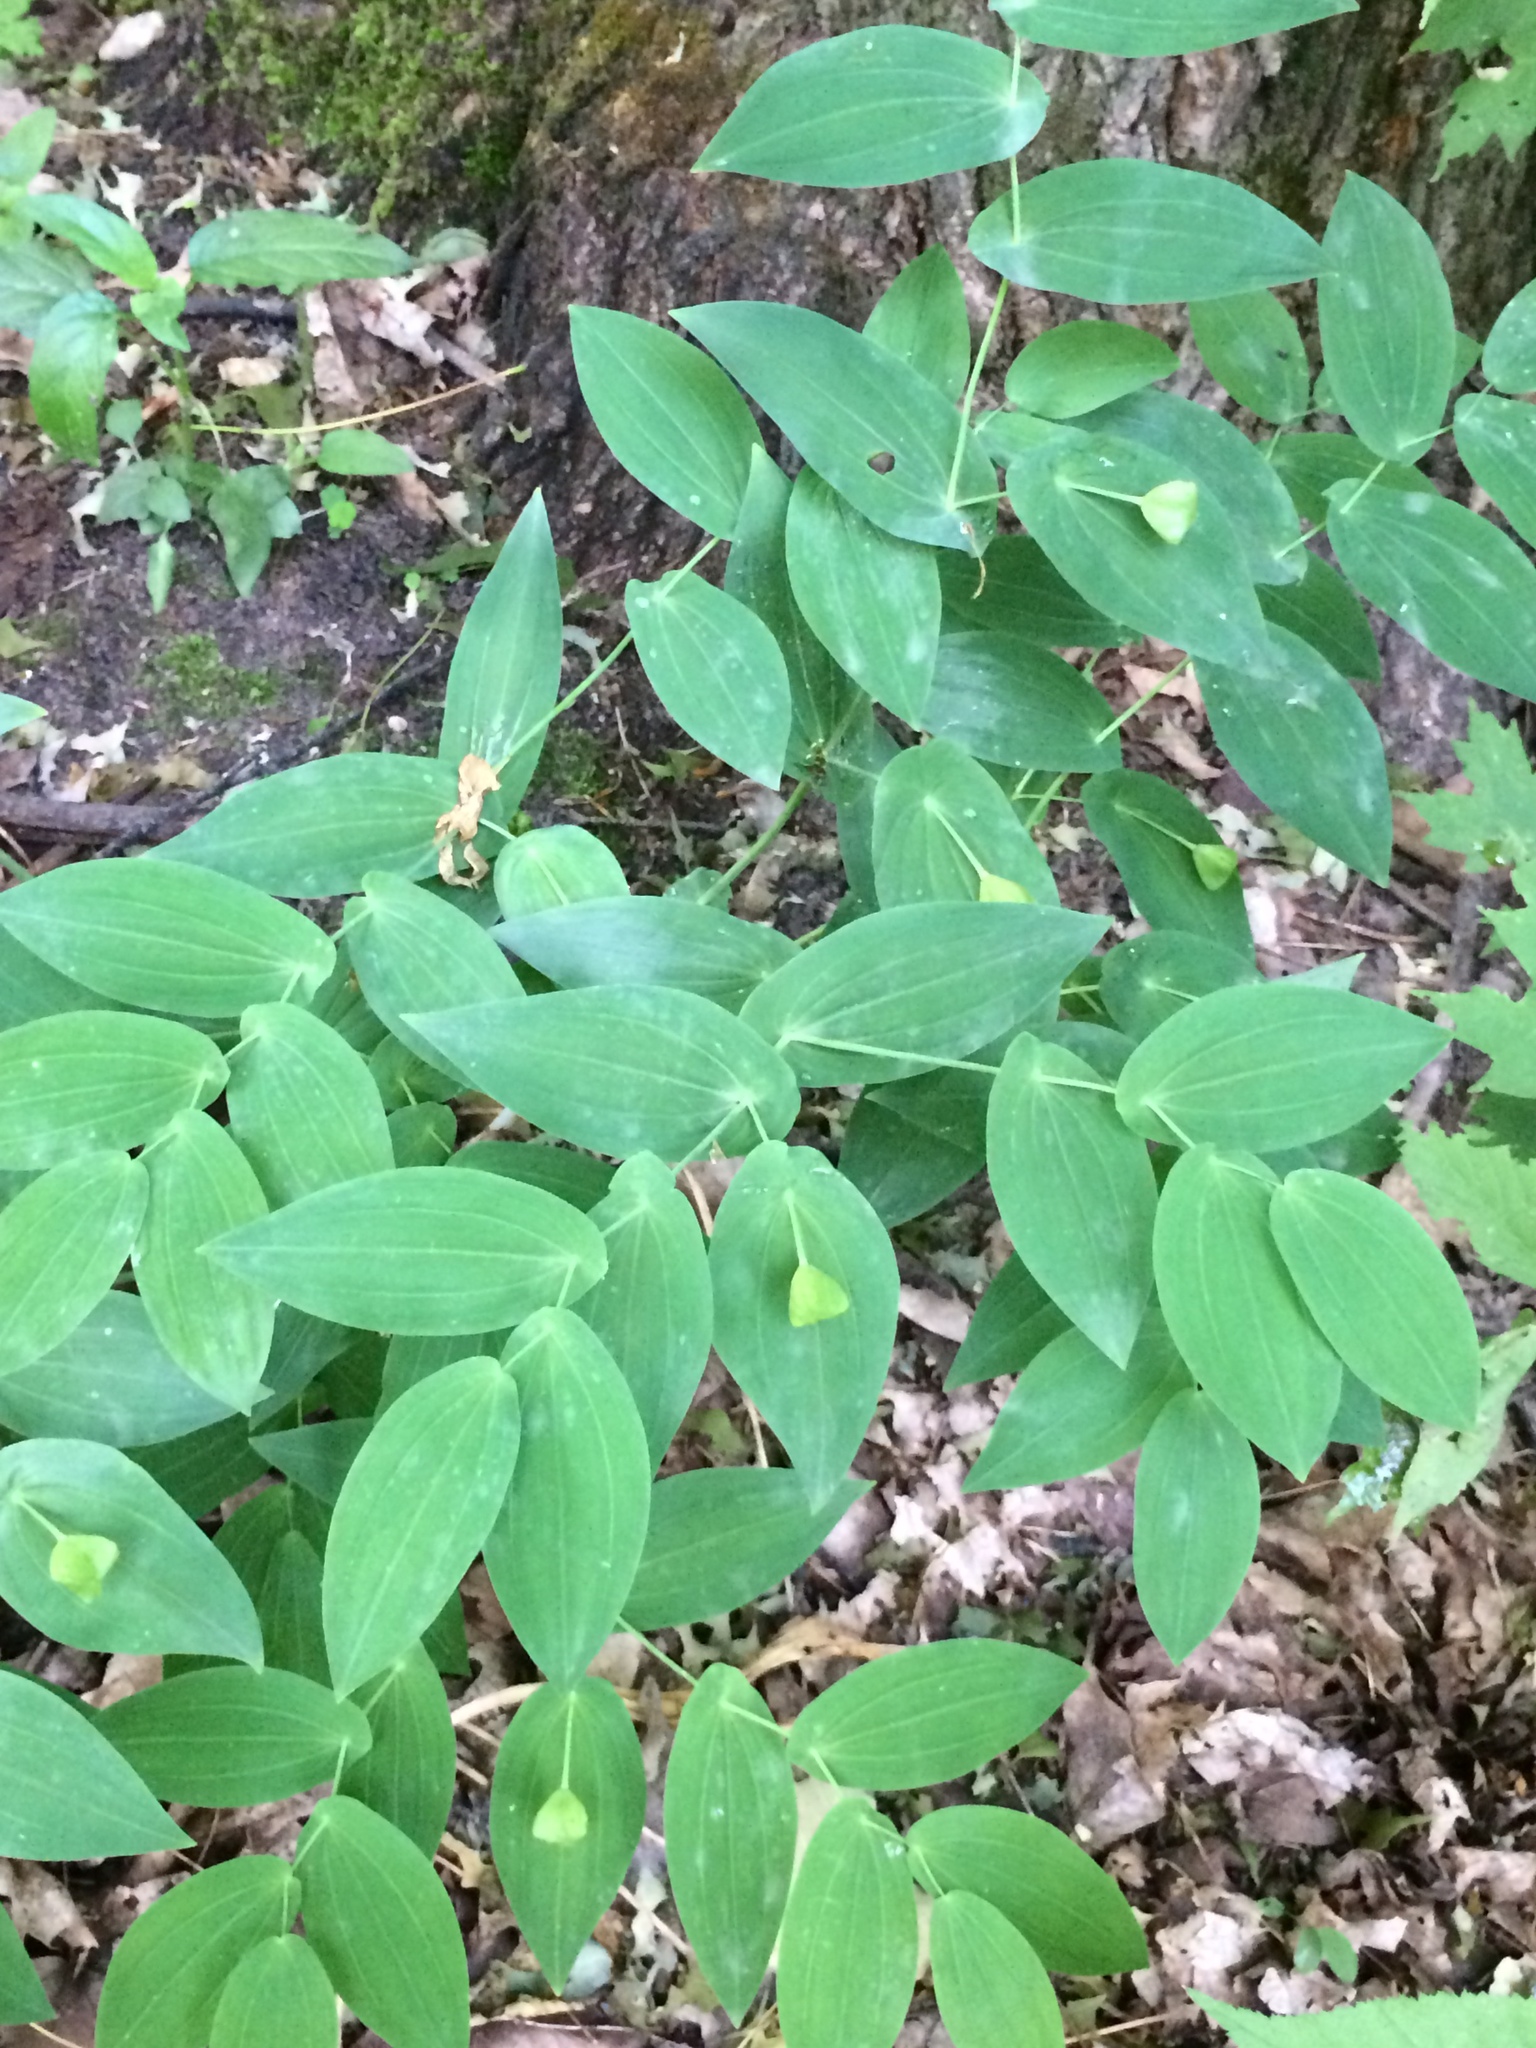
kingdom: Plantae
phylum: Tracheophyta
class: Liliopsida
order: Liliales
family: Colchicaceae
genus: Uvularia
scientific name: Uvularia grandiflora
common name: Bellwort
